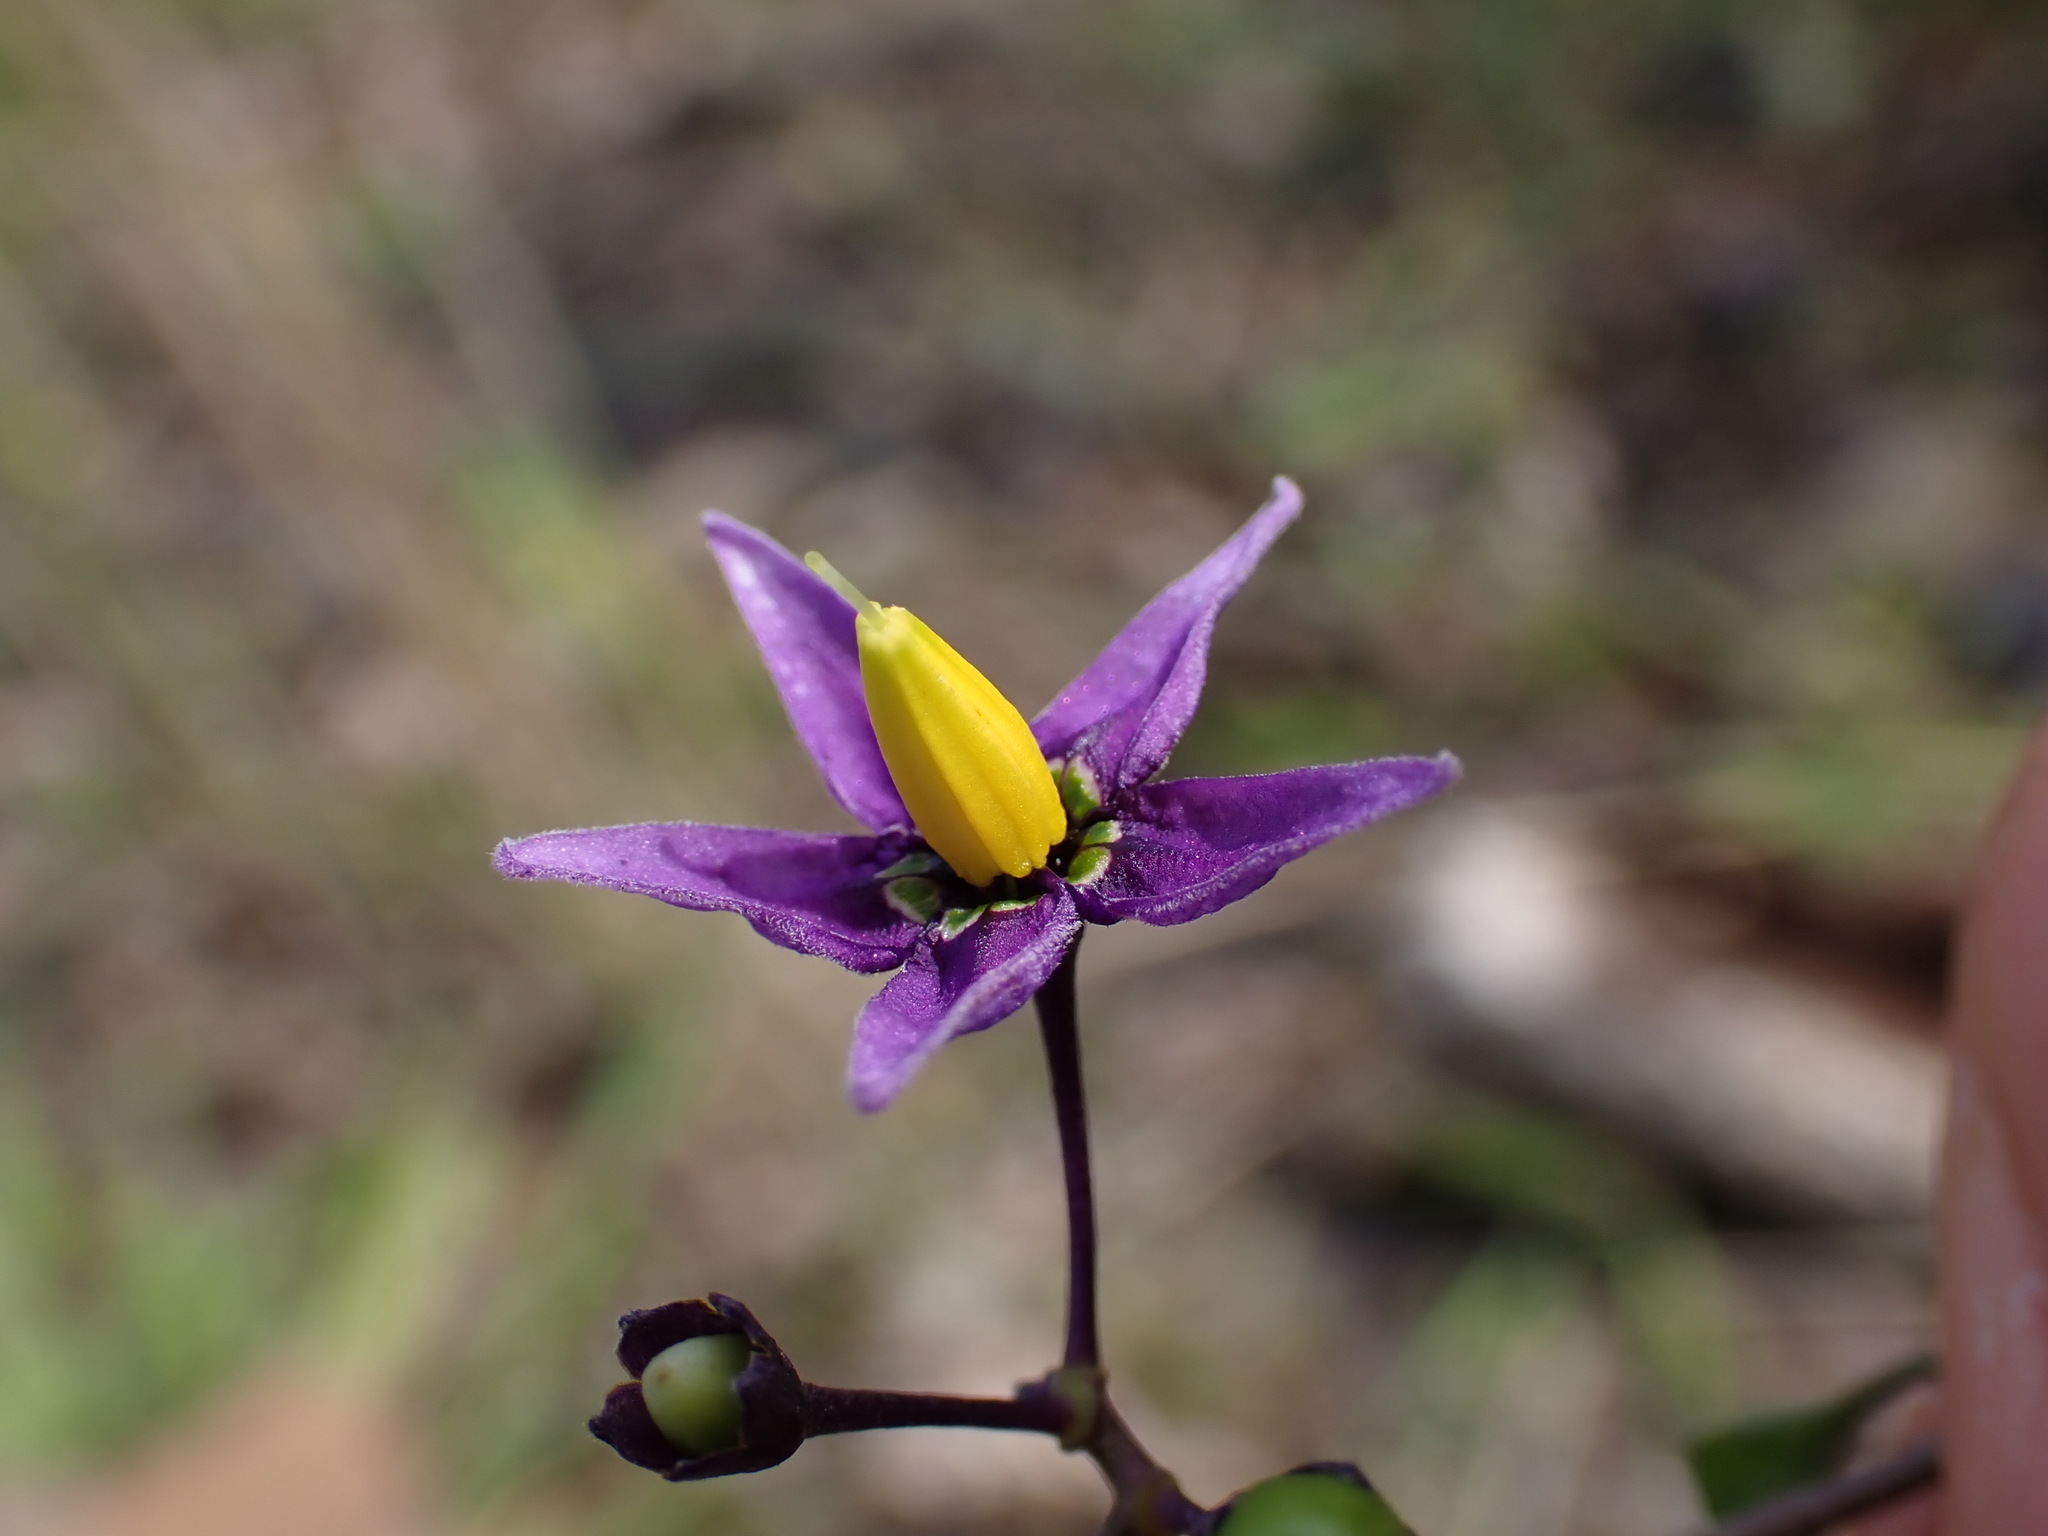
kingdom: Plantae
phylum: Tracheophyta
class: Magnoliopsida
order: Solanales
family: Solanaceae
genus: Solanum
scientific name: Solanum dulcamara
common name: Climbing nightshade
